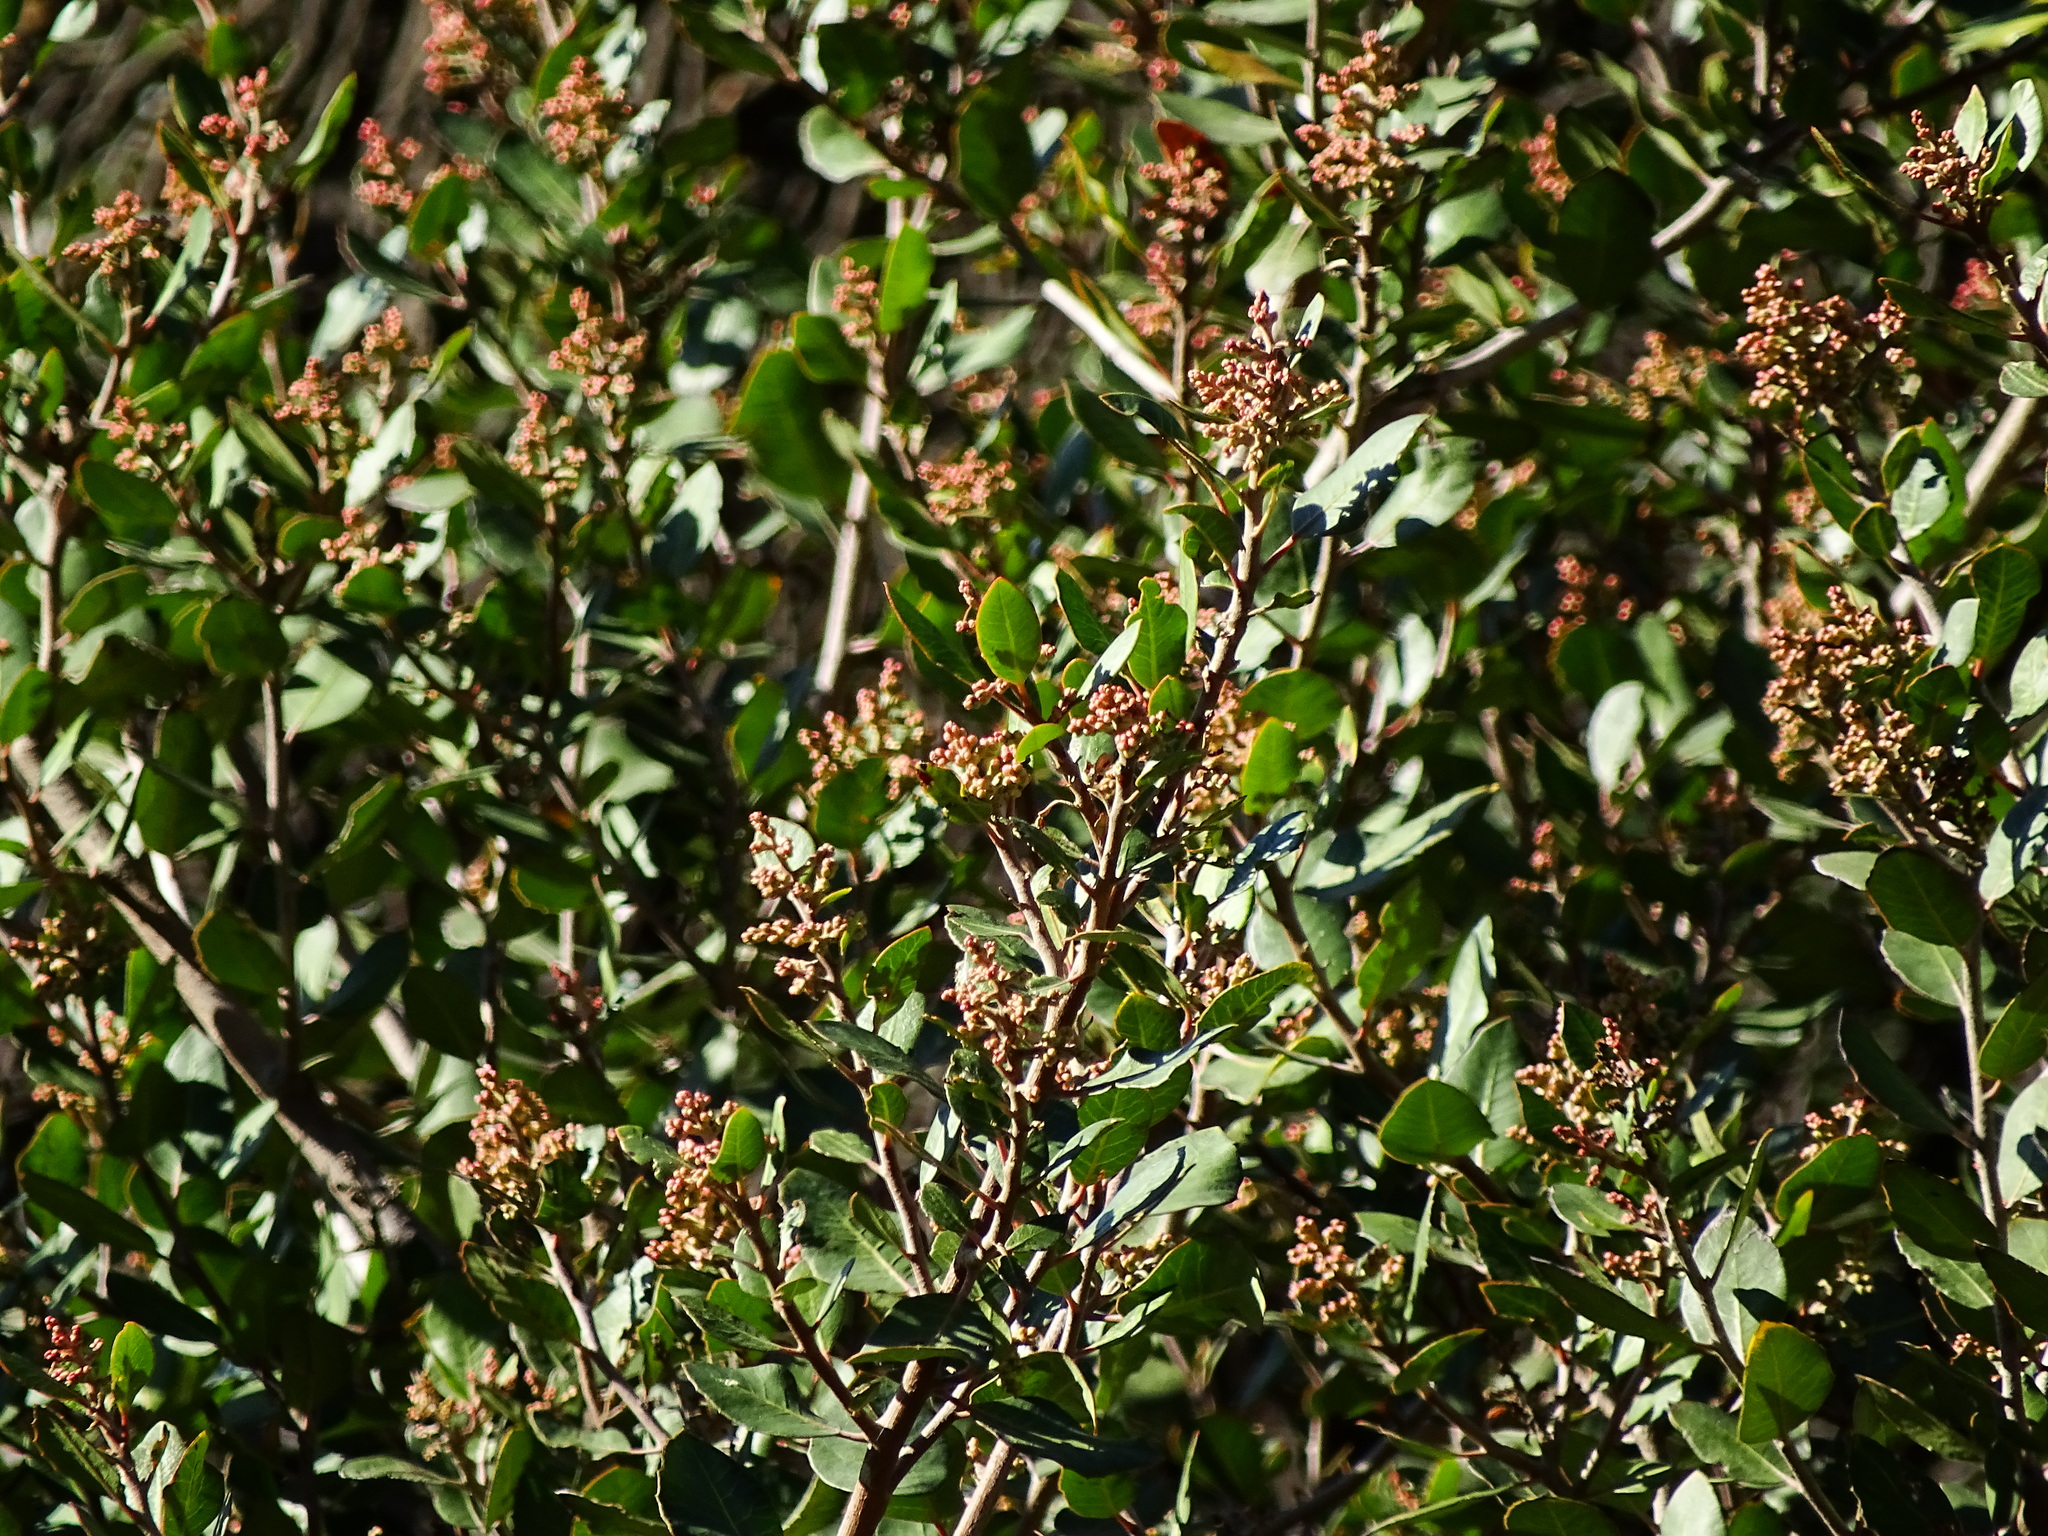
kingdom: Plantae
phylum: Tracheophyta
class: Magnoliopsida
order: Sapindales
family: Anacardiaceae
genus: Rhus
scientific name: Rhus integrifolia
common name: Lemonade sumac
